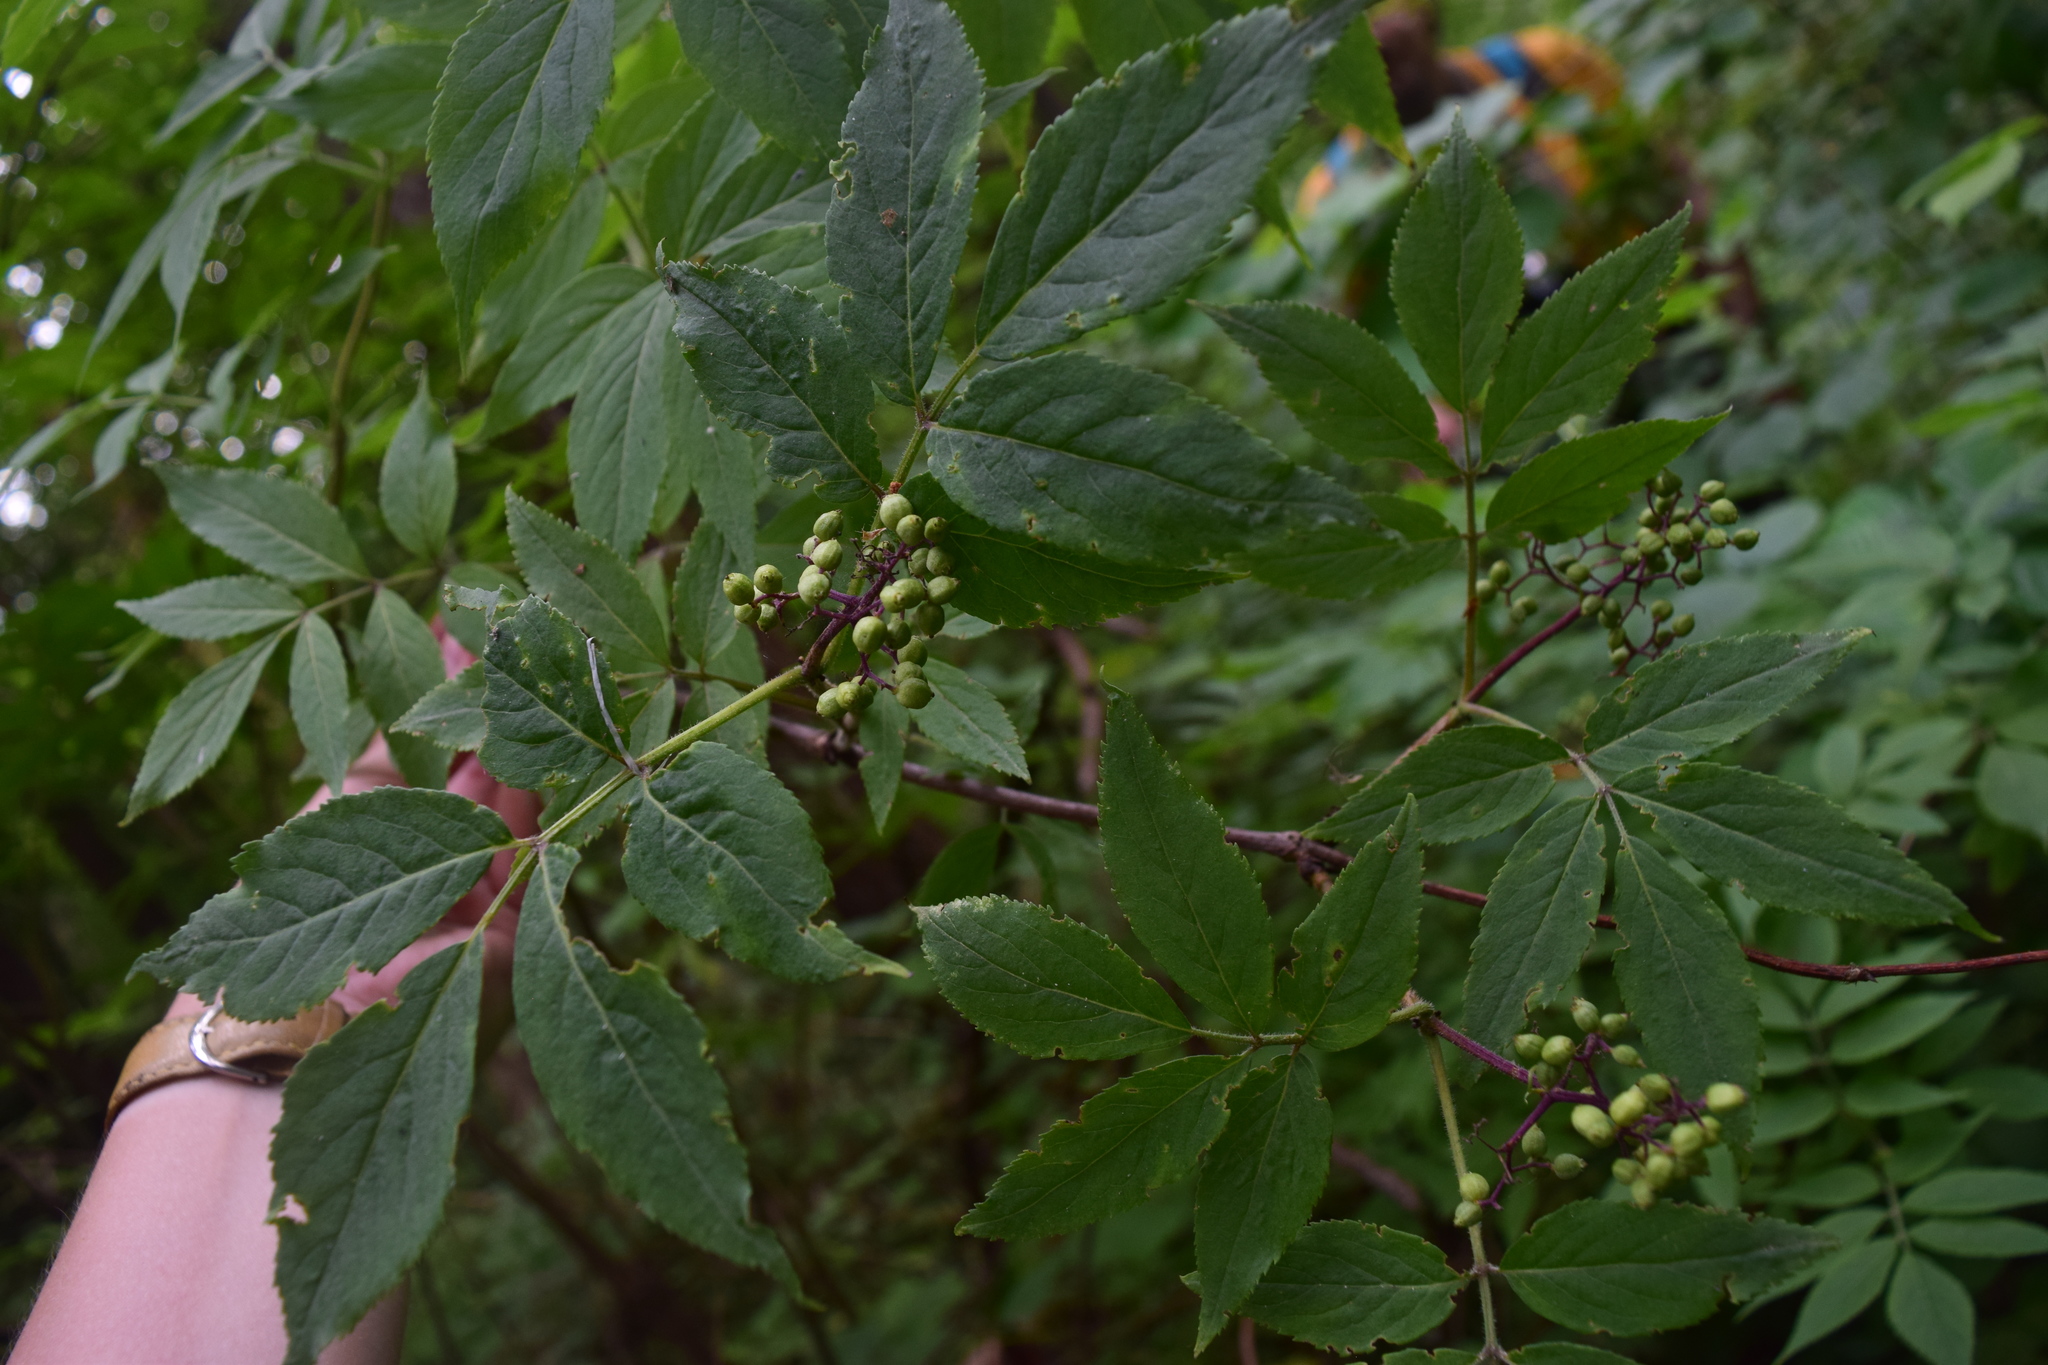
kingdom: Plantae
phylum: Tracheophyta
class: Magnoliopsida
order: Dipsacales
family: Viburnaceae
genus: Sambucus
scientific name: Sambucus racemosa
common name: Red-berried elder
